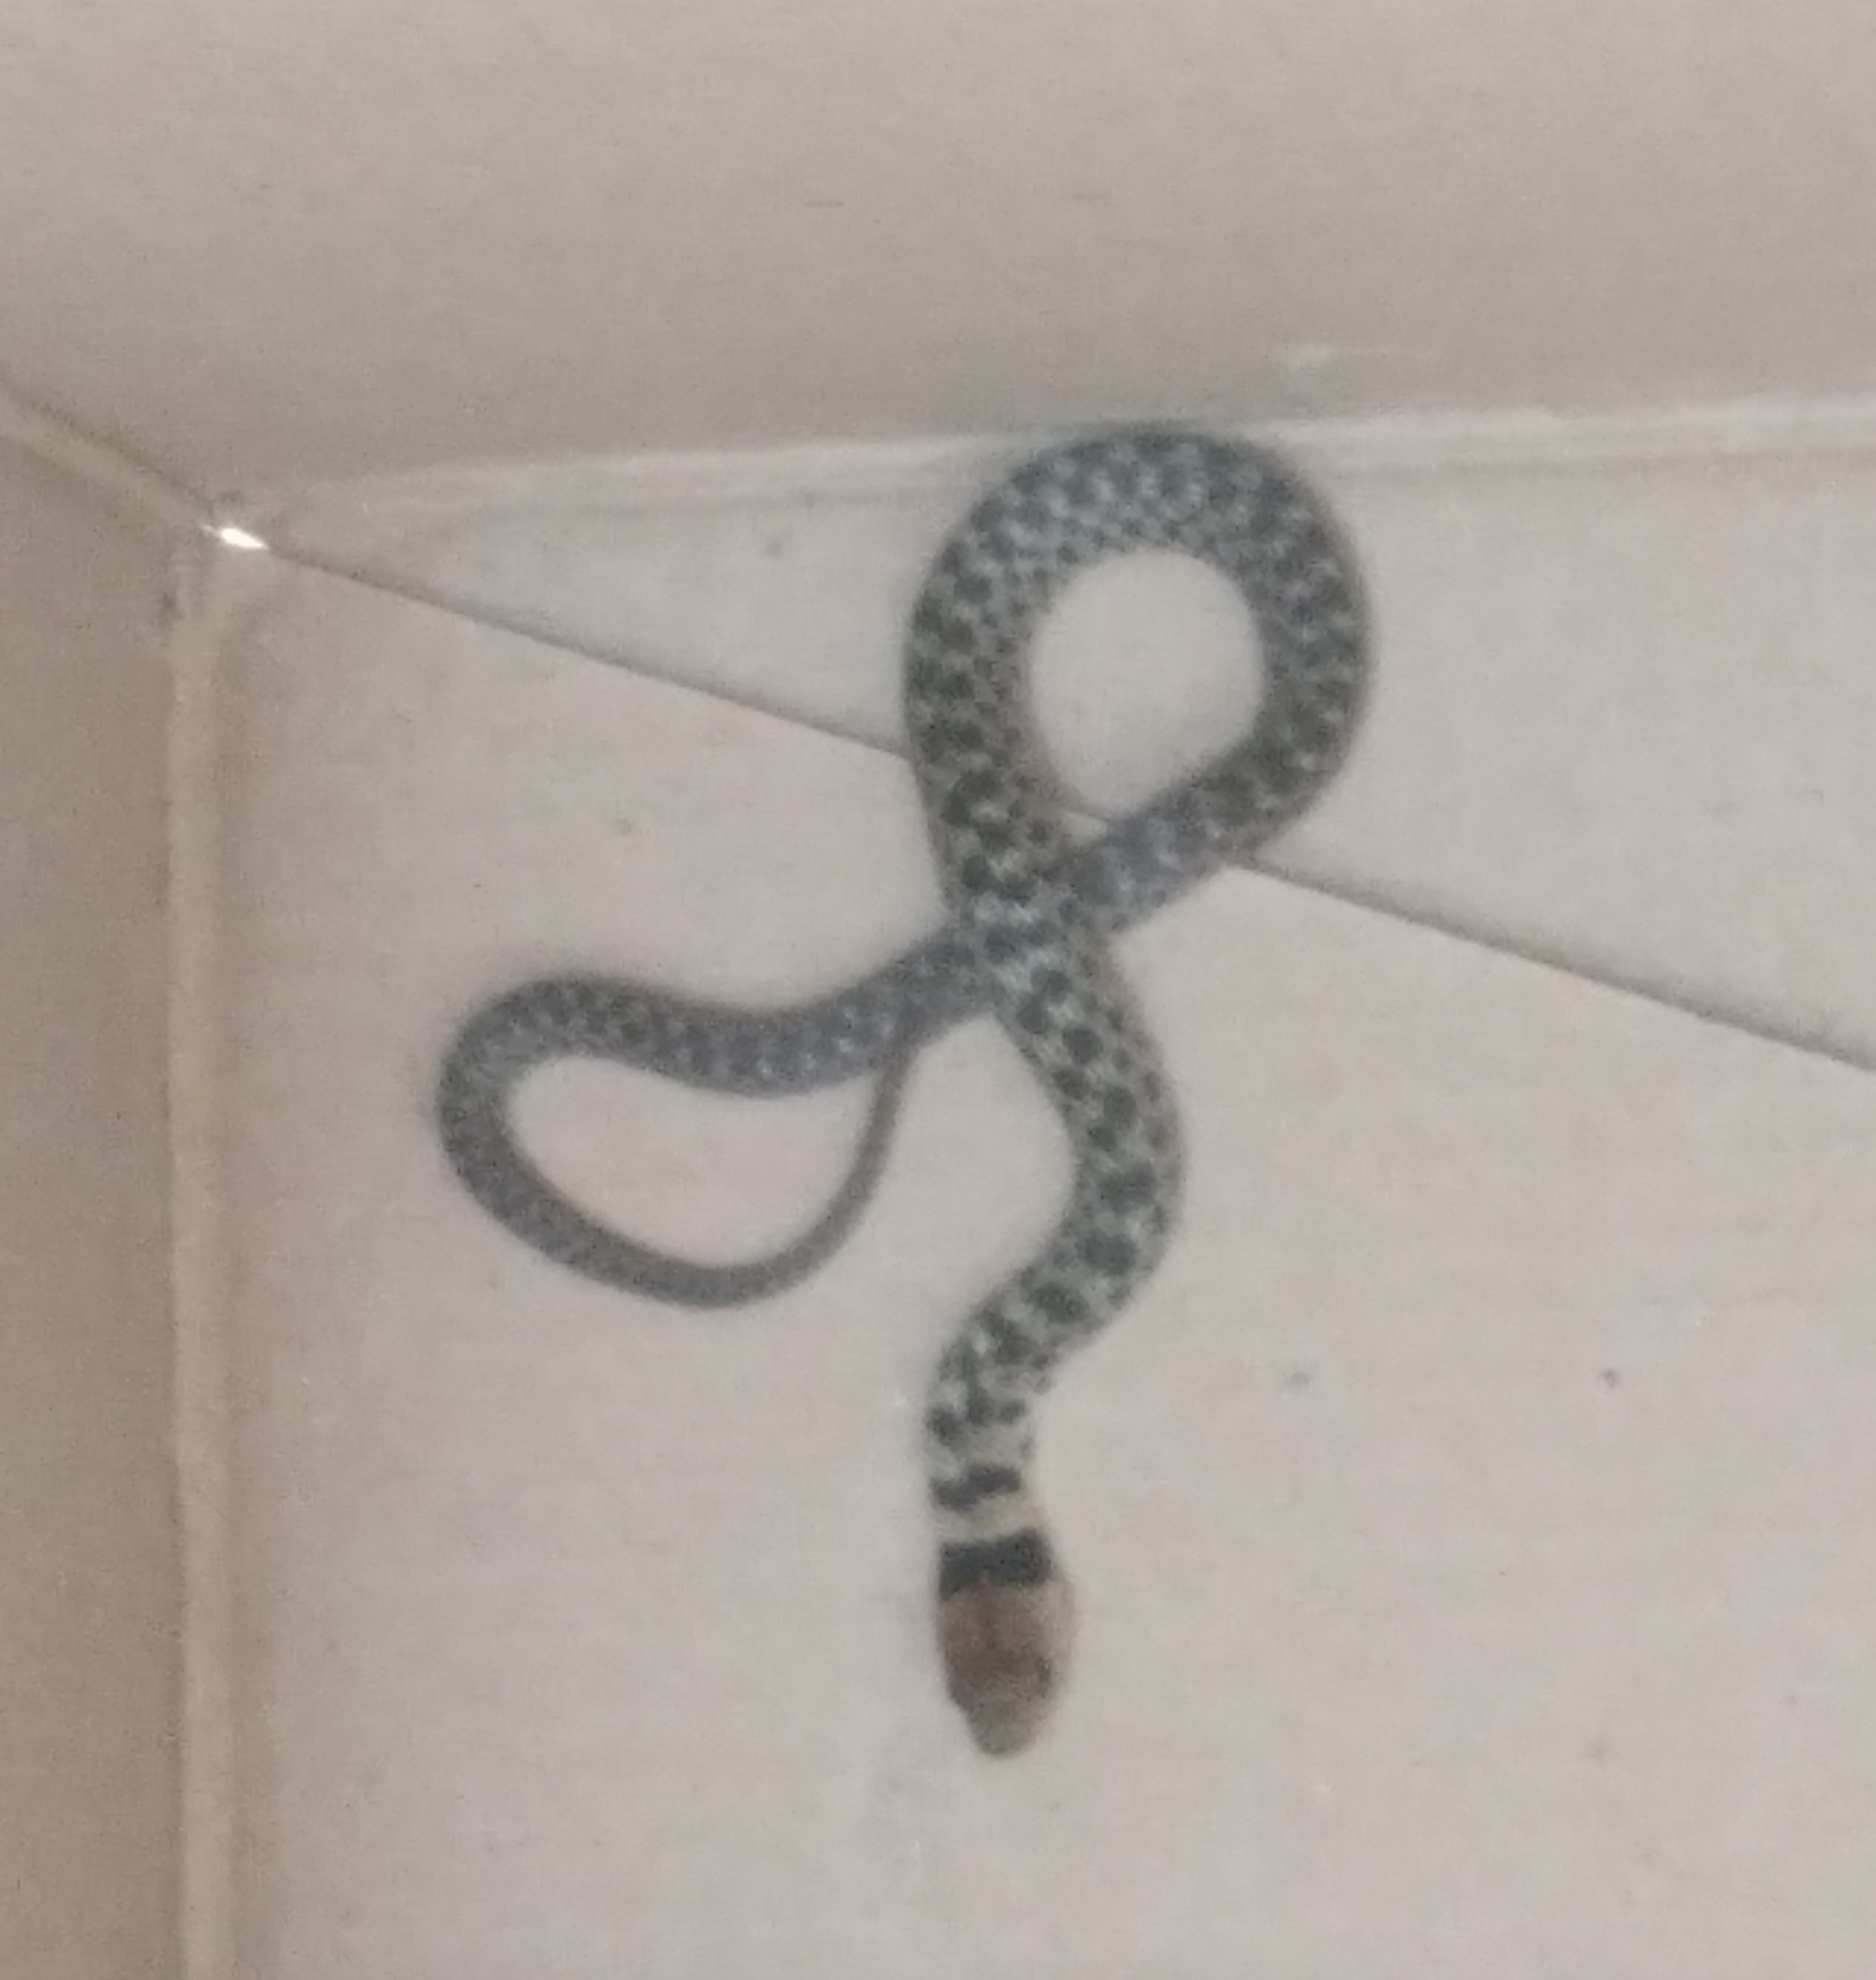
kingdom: Animalia
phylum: Chordata
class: Squamata
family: Colubridae
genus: Erythrolamprus
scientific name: Erythrolamprus poecilogyrus
